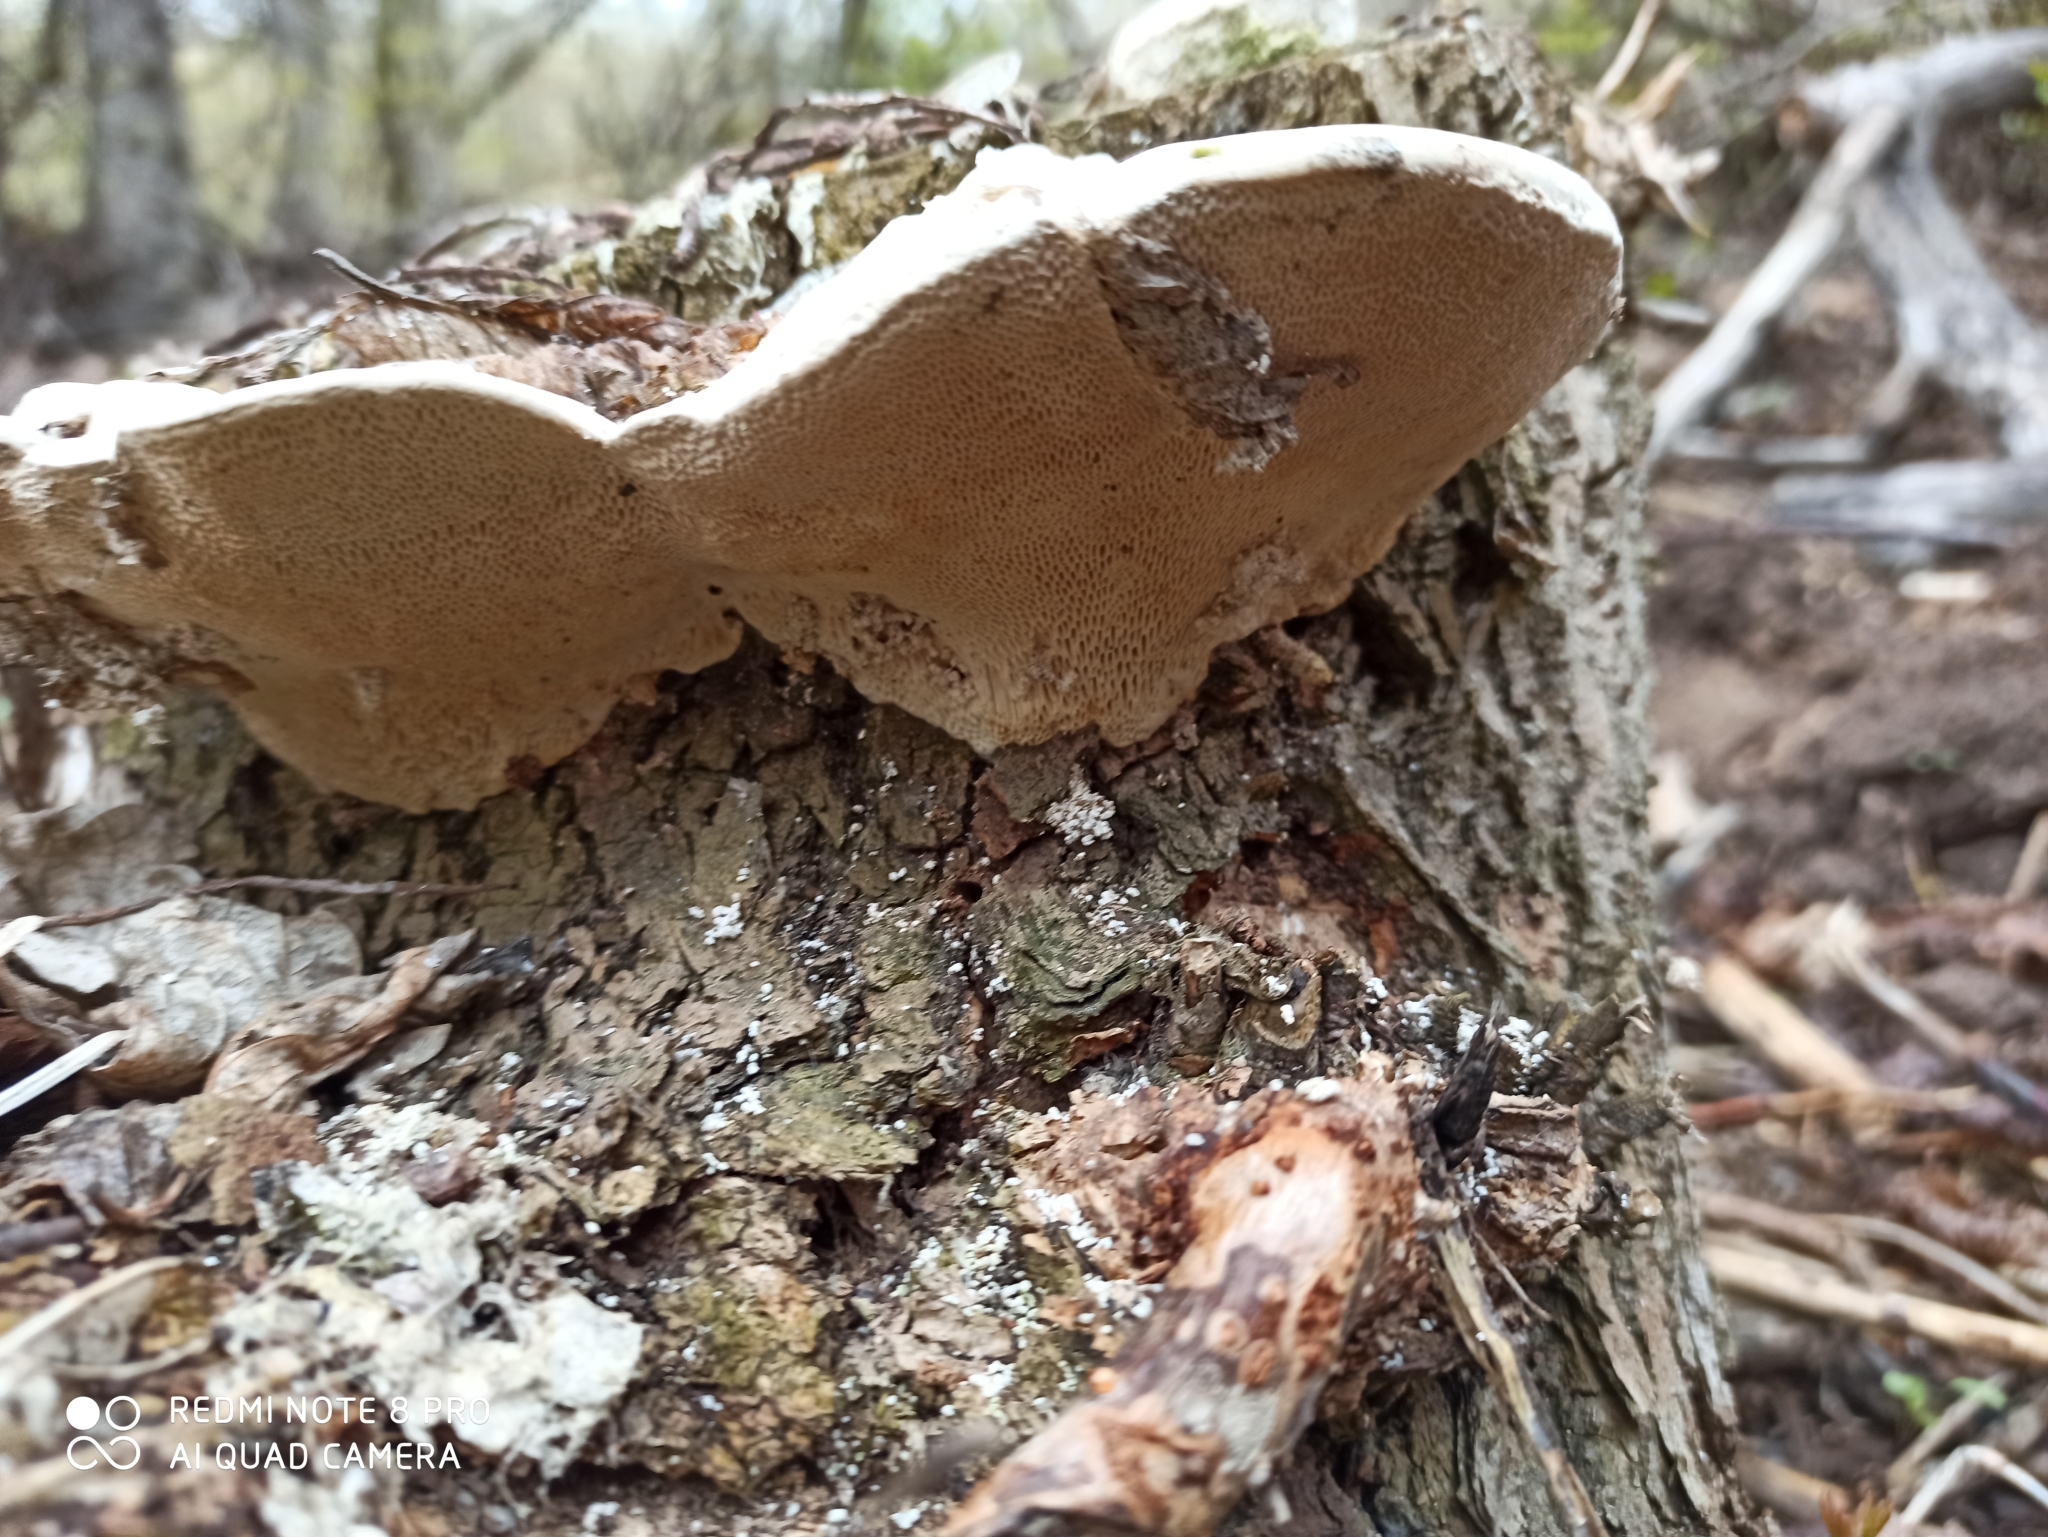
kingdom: Fungi
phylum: Basidiomycota
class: Agaricomycetes
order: Polyporales
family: Polyporaceae
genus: Trametes
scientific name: Trametes gibbosa
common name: Lumpy bracket
